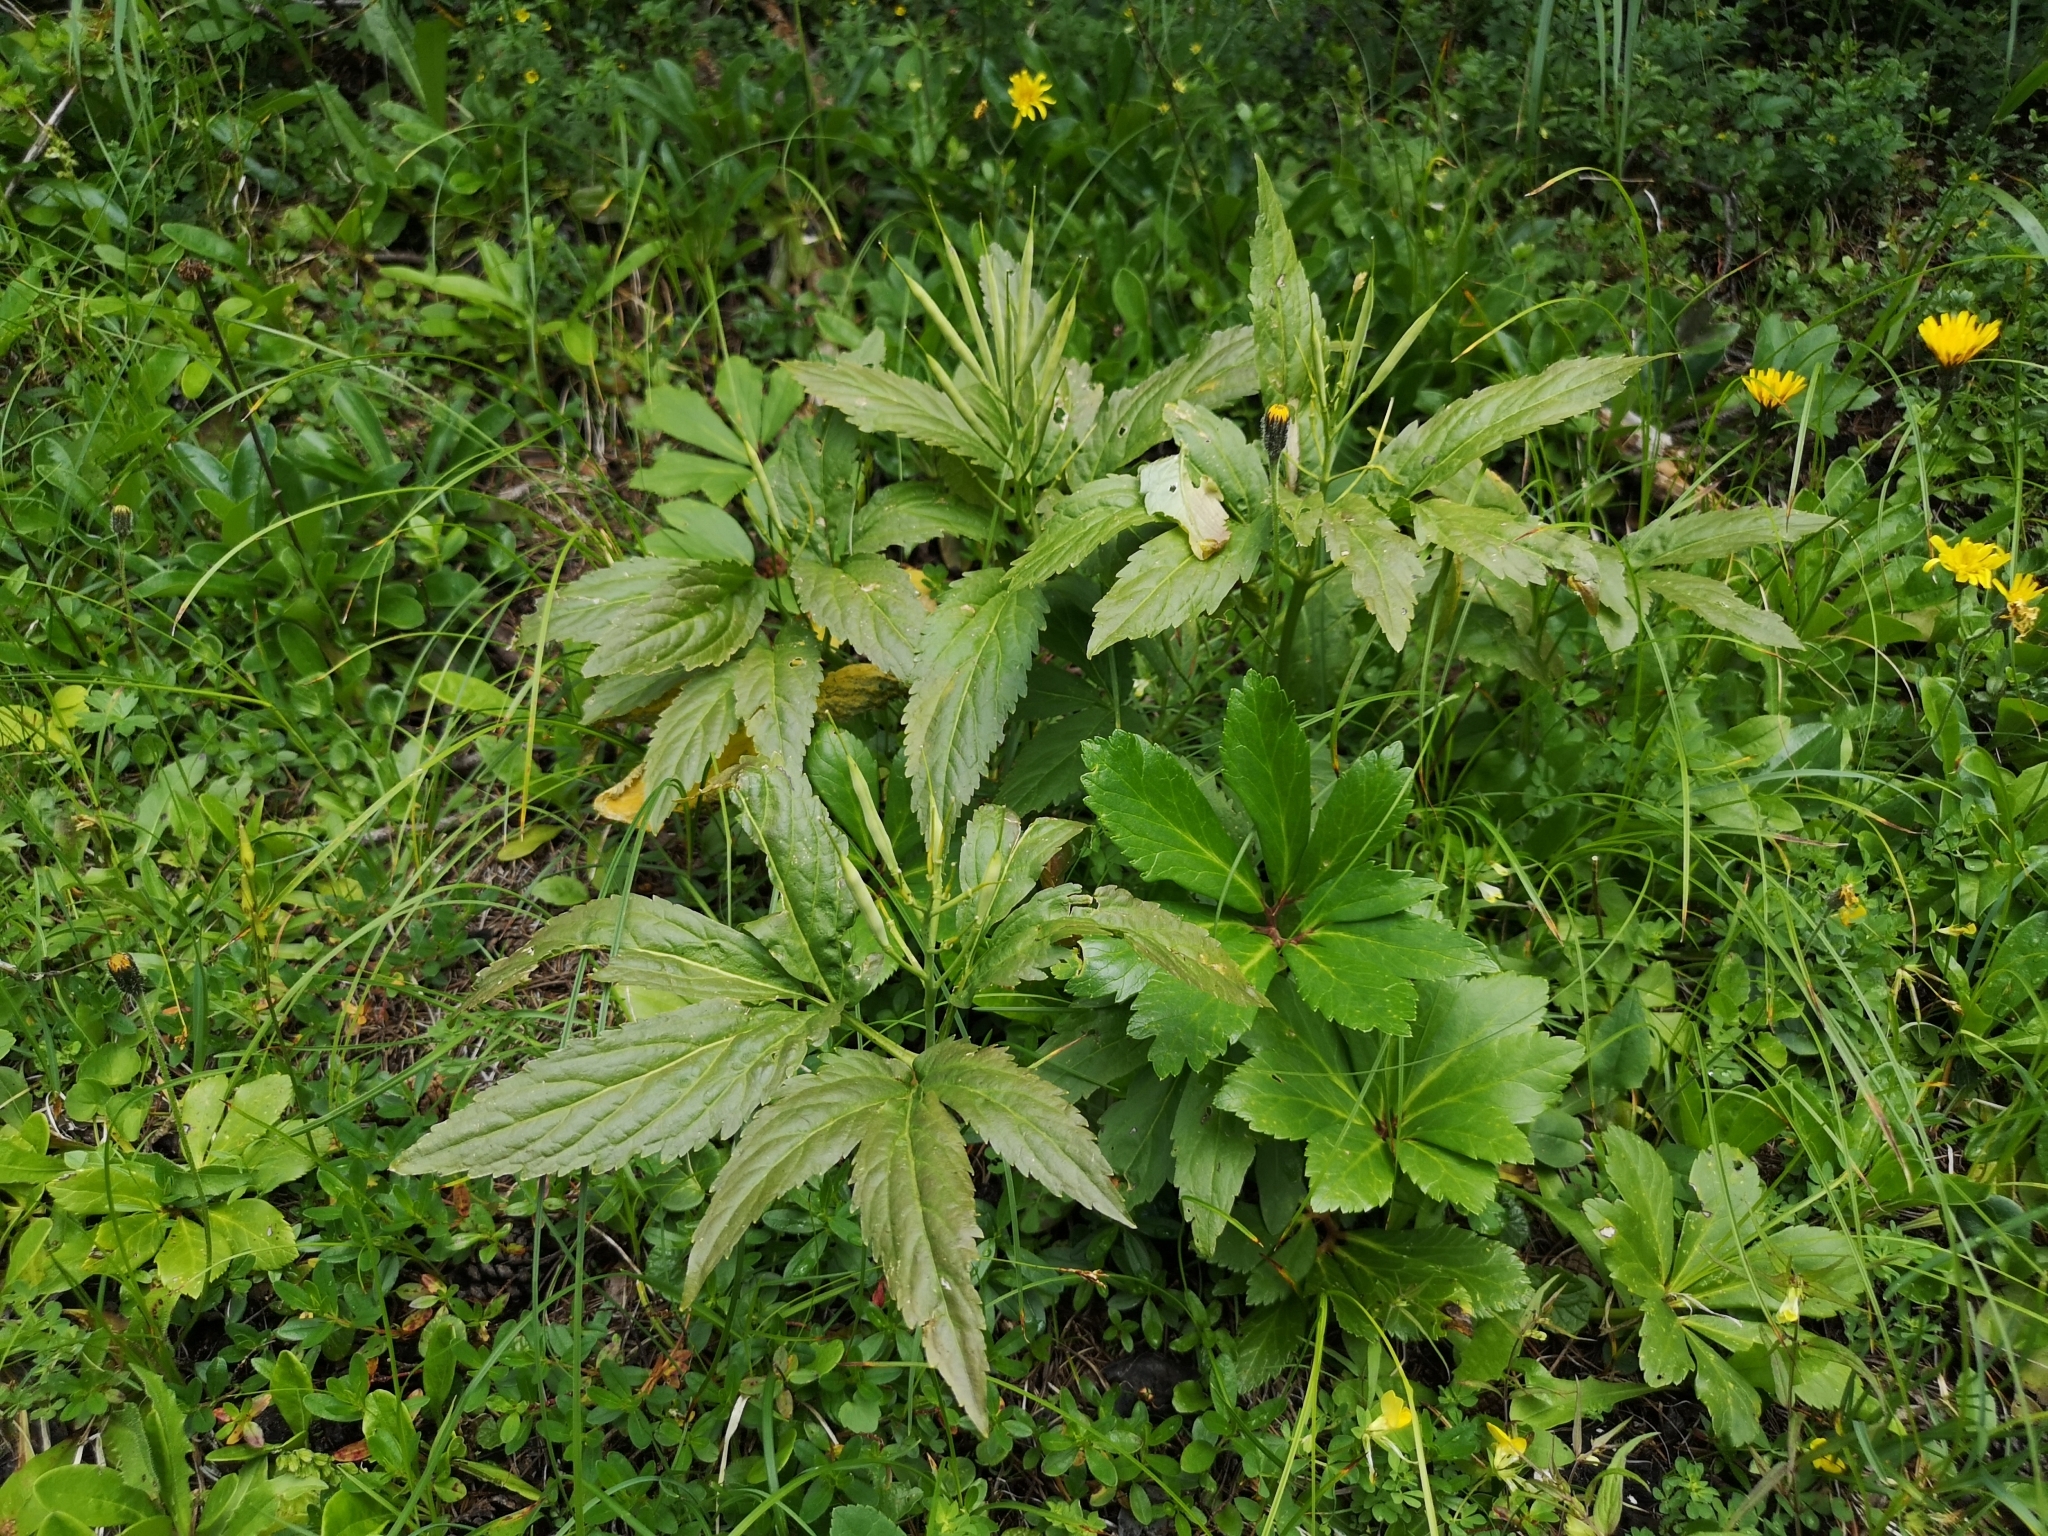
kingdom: Plantae
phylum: Tracheophyta
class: Magnoliopsida
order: Brassicales
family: Brassicaceae
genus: Cardamine
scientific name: Cardamine enneaphyllos
